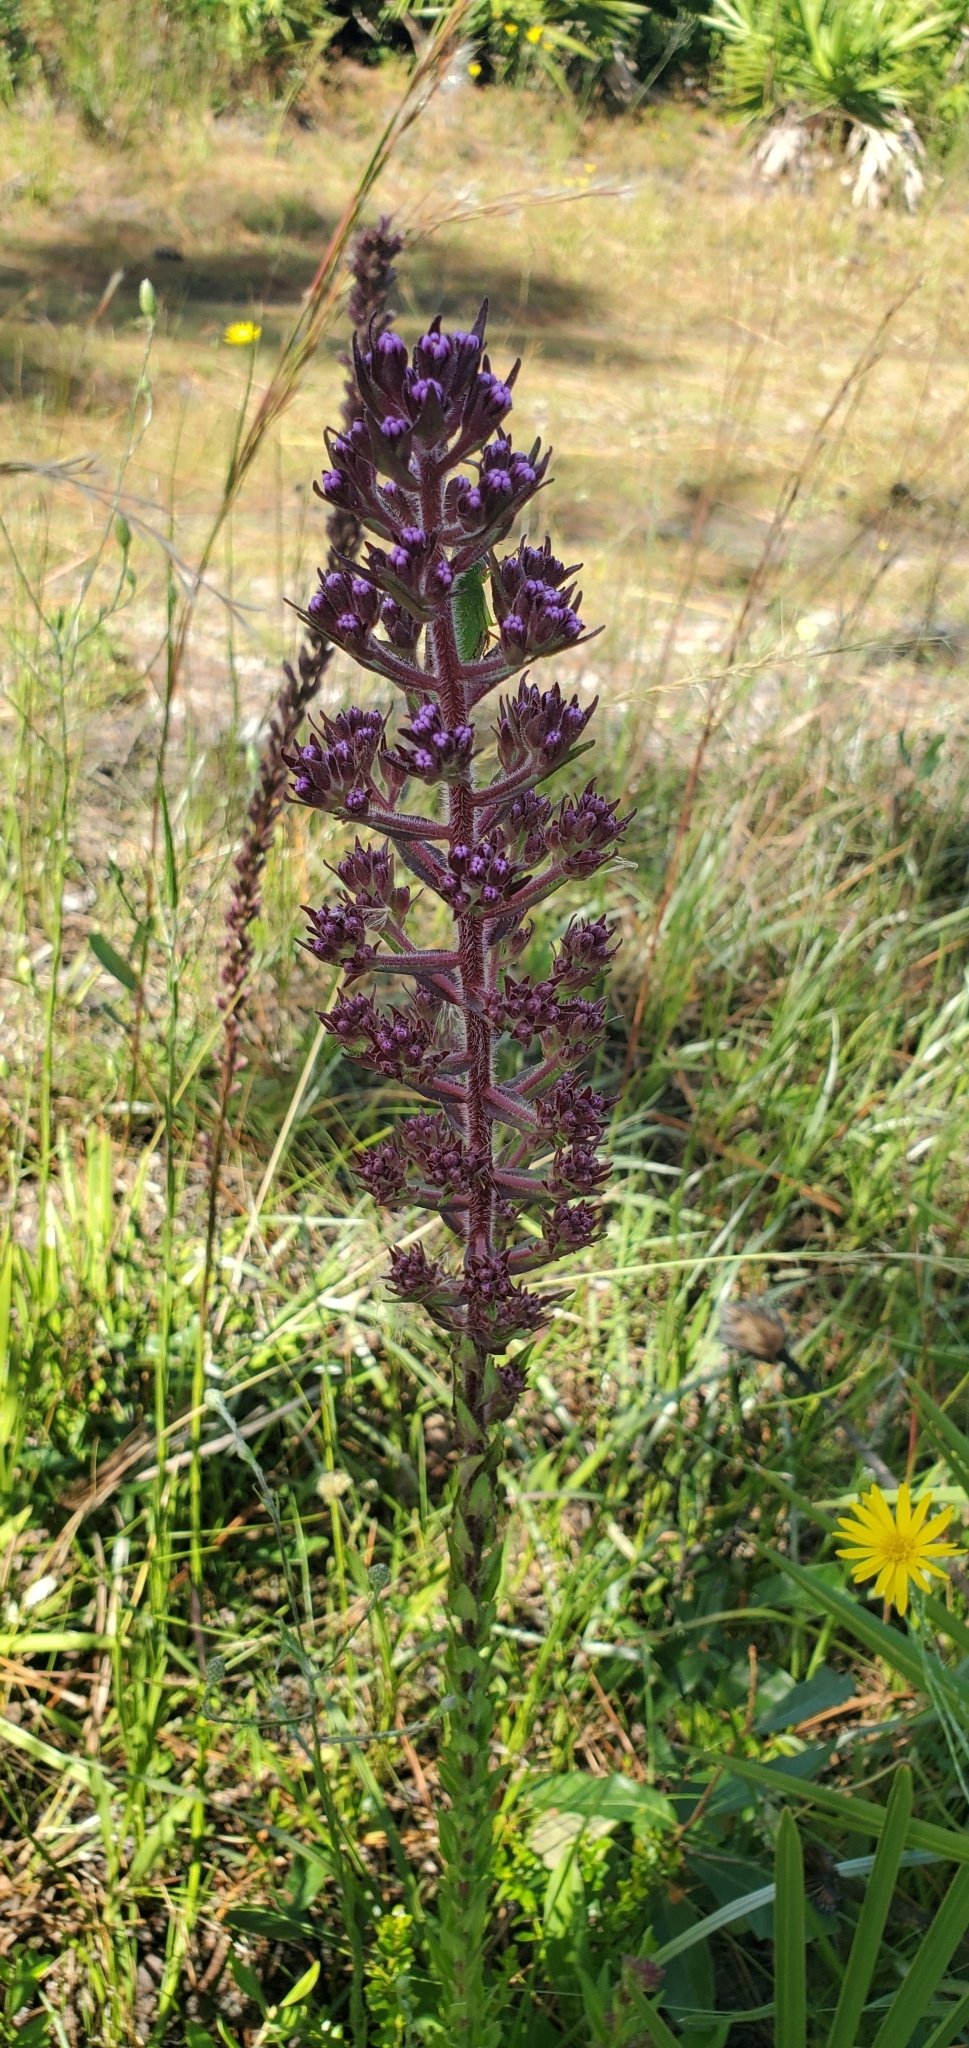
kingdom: Plantae
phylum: Tracheophyta
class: Magnoliopsida
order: Asterales
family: Asteraceae
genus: Carphephorus
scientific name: Carphephorus paniculatus
